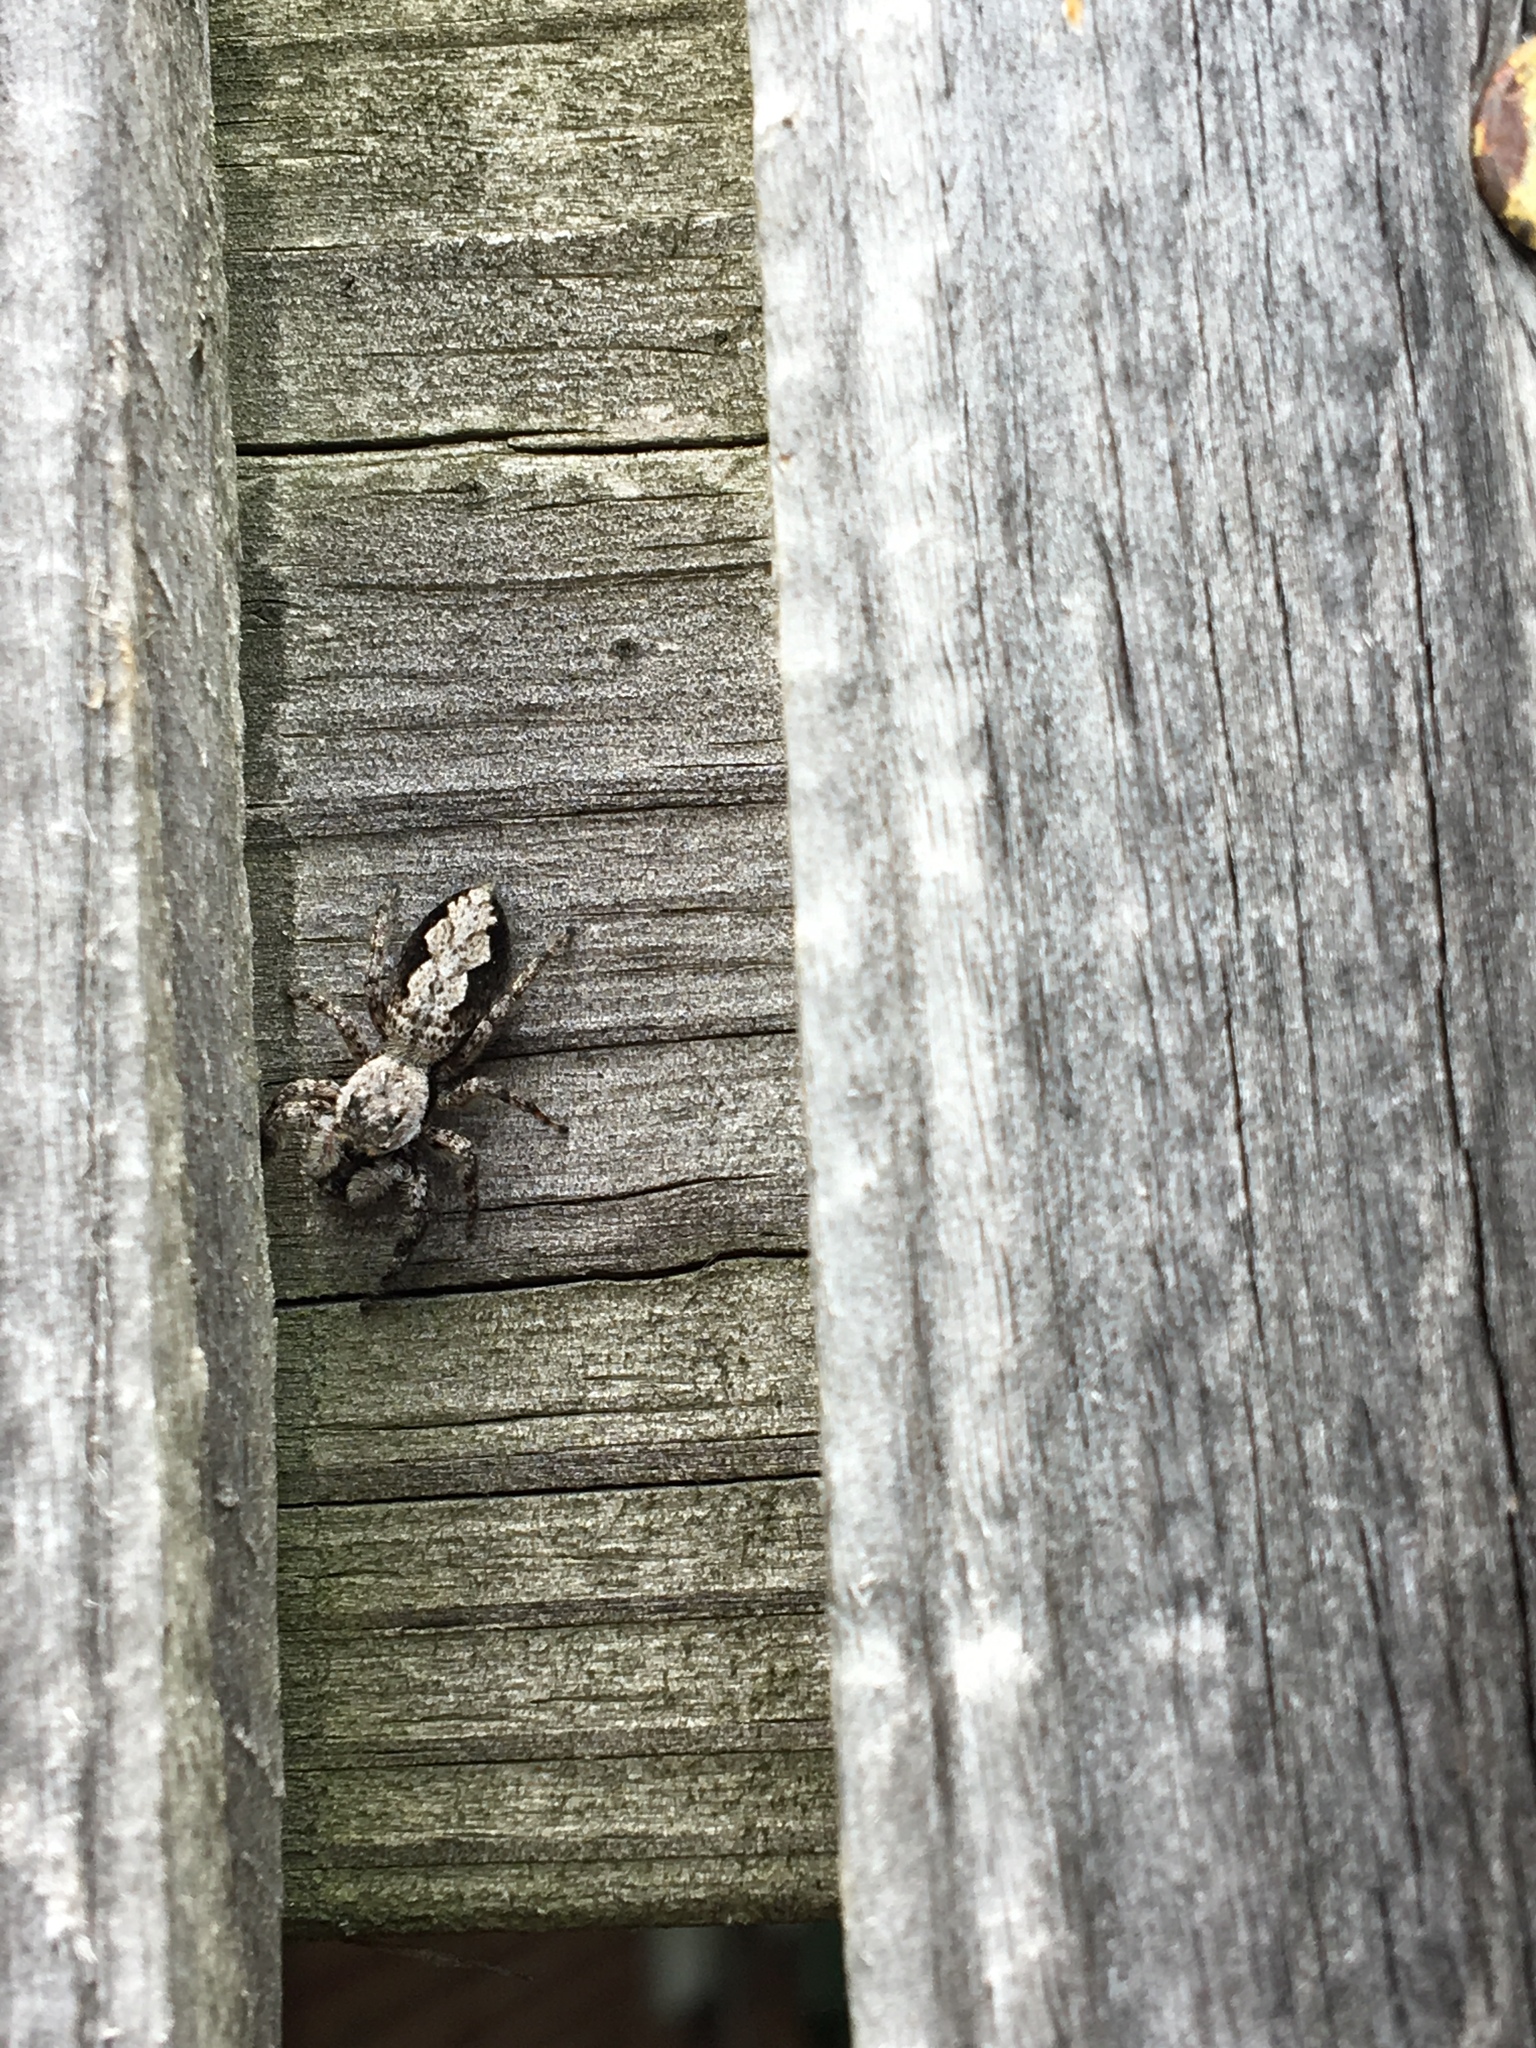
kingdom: Animalia
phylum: Arthropoda
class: Arachnida
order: Araneae
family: Salticidae
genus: Platycryptus
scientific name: Platycryptus undatus
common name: Tan jumping spider
